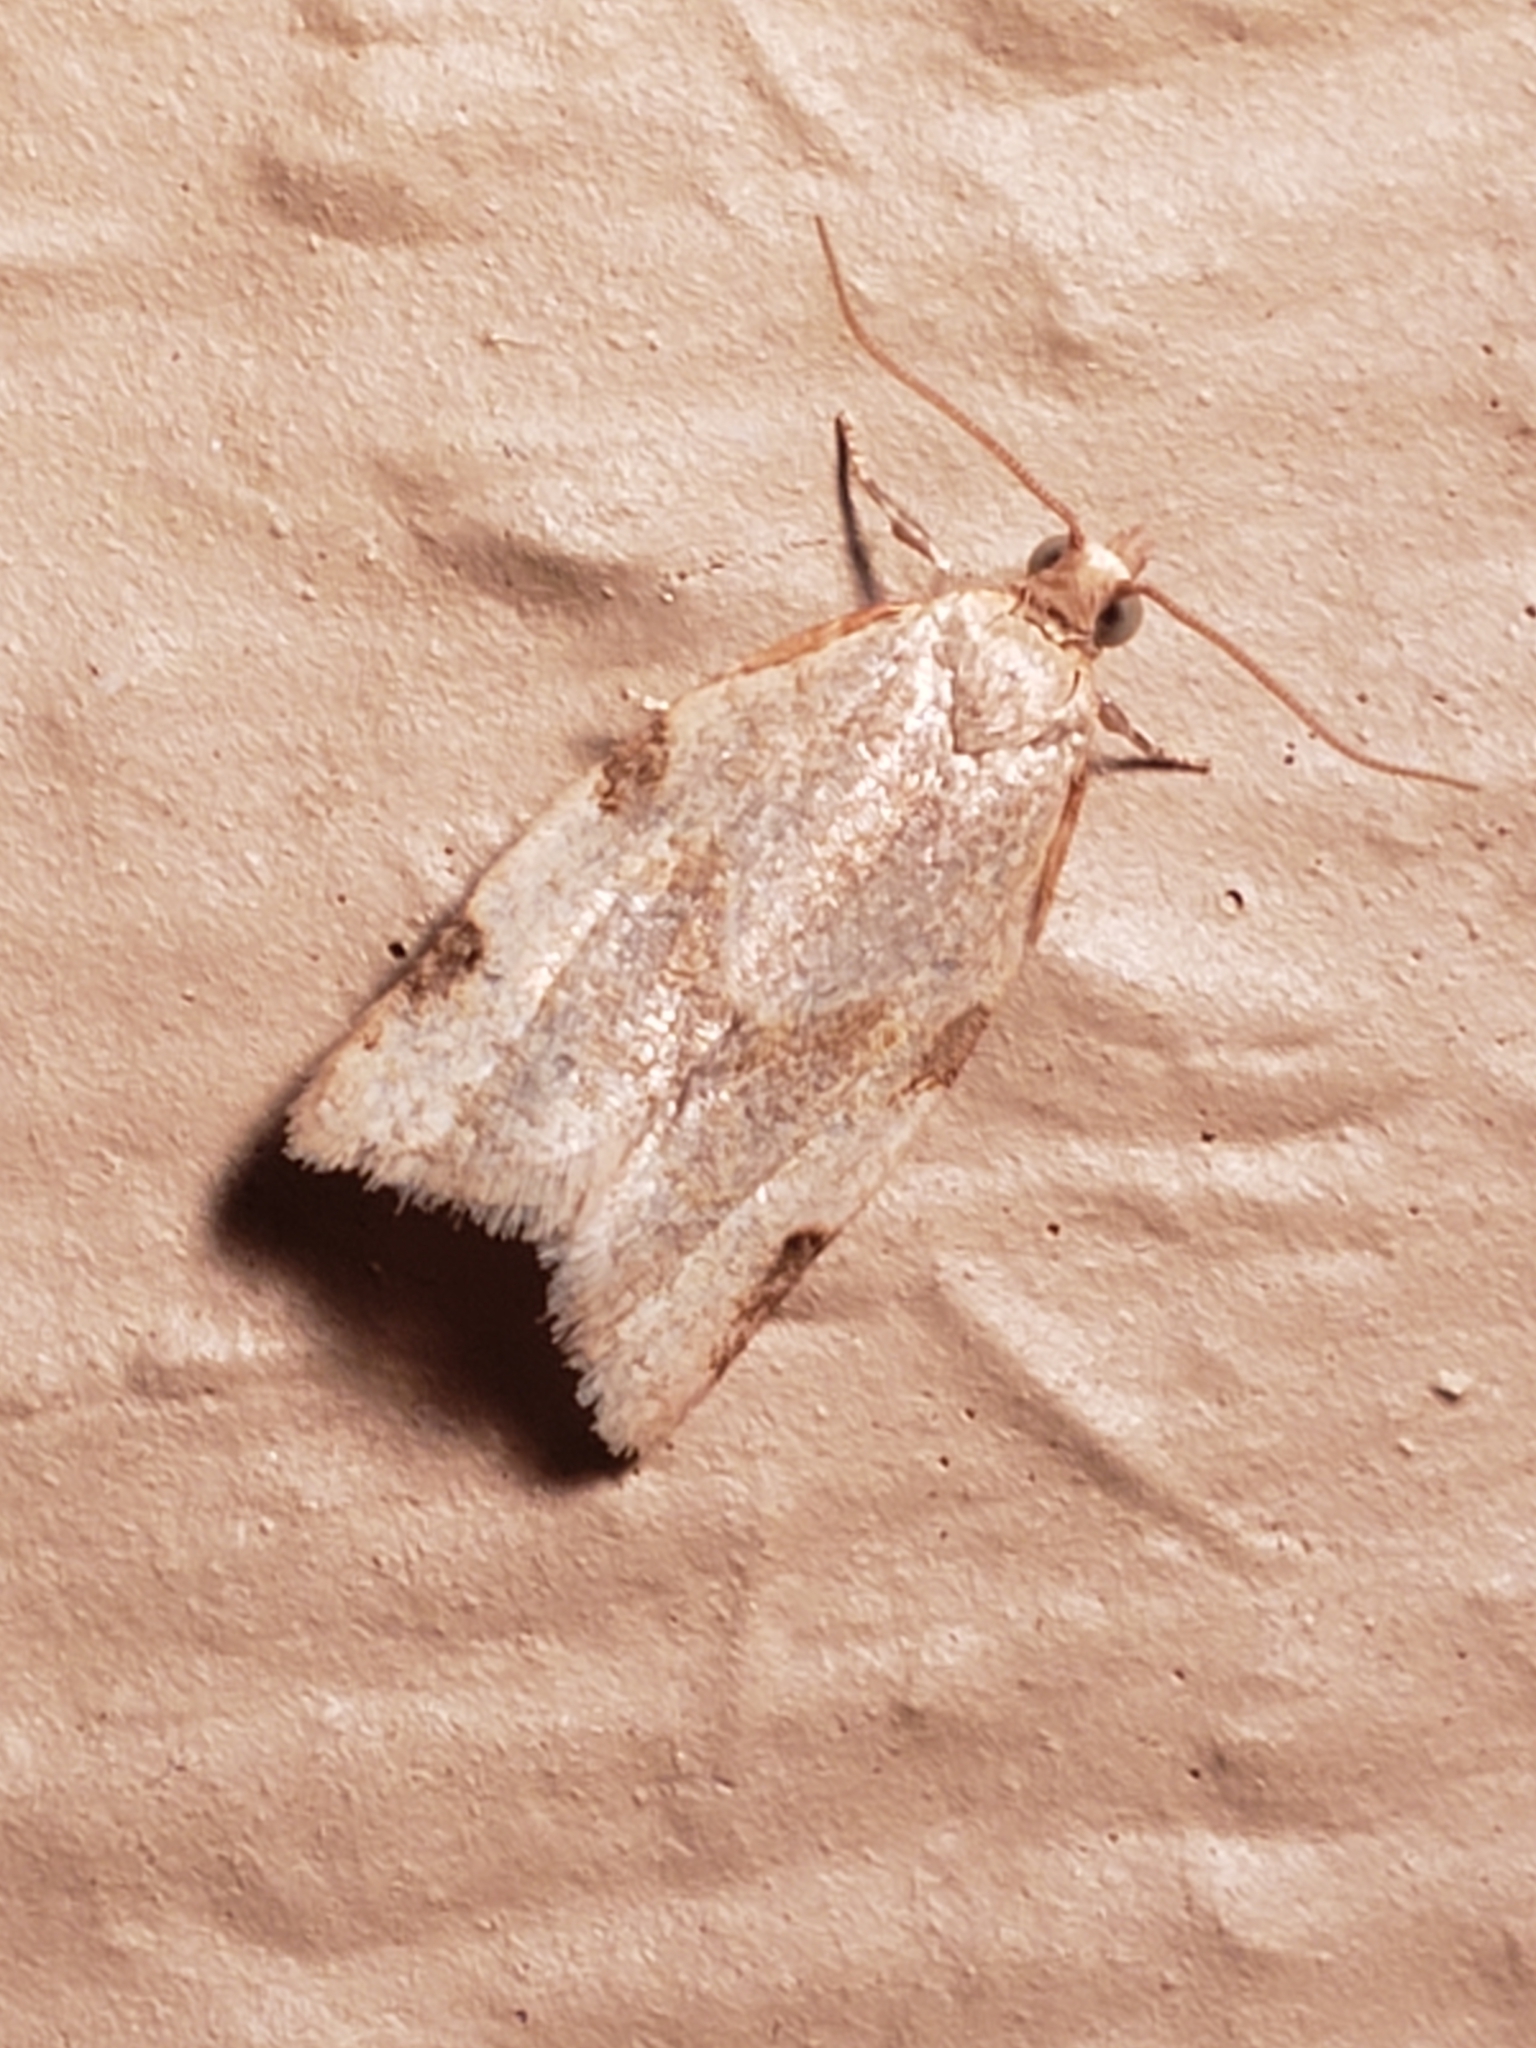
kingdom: Animalia
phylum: Arthropoda
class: Insecta
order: Lepidoptera
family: Tortricidae
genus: Clepsis
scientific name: Clepsis virescana
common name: Greenish apple moth
